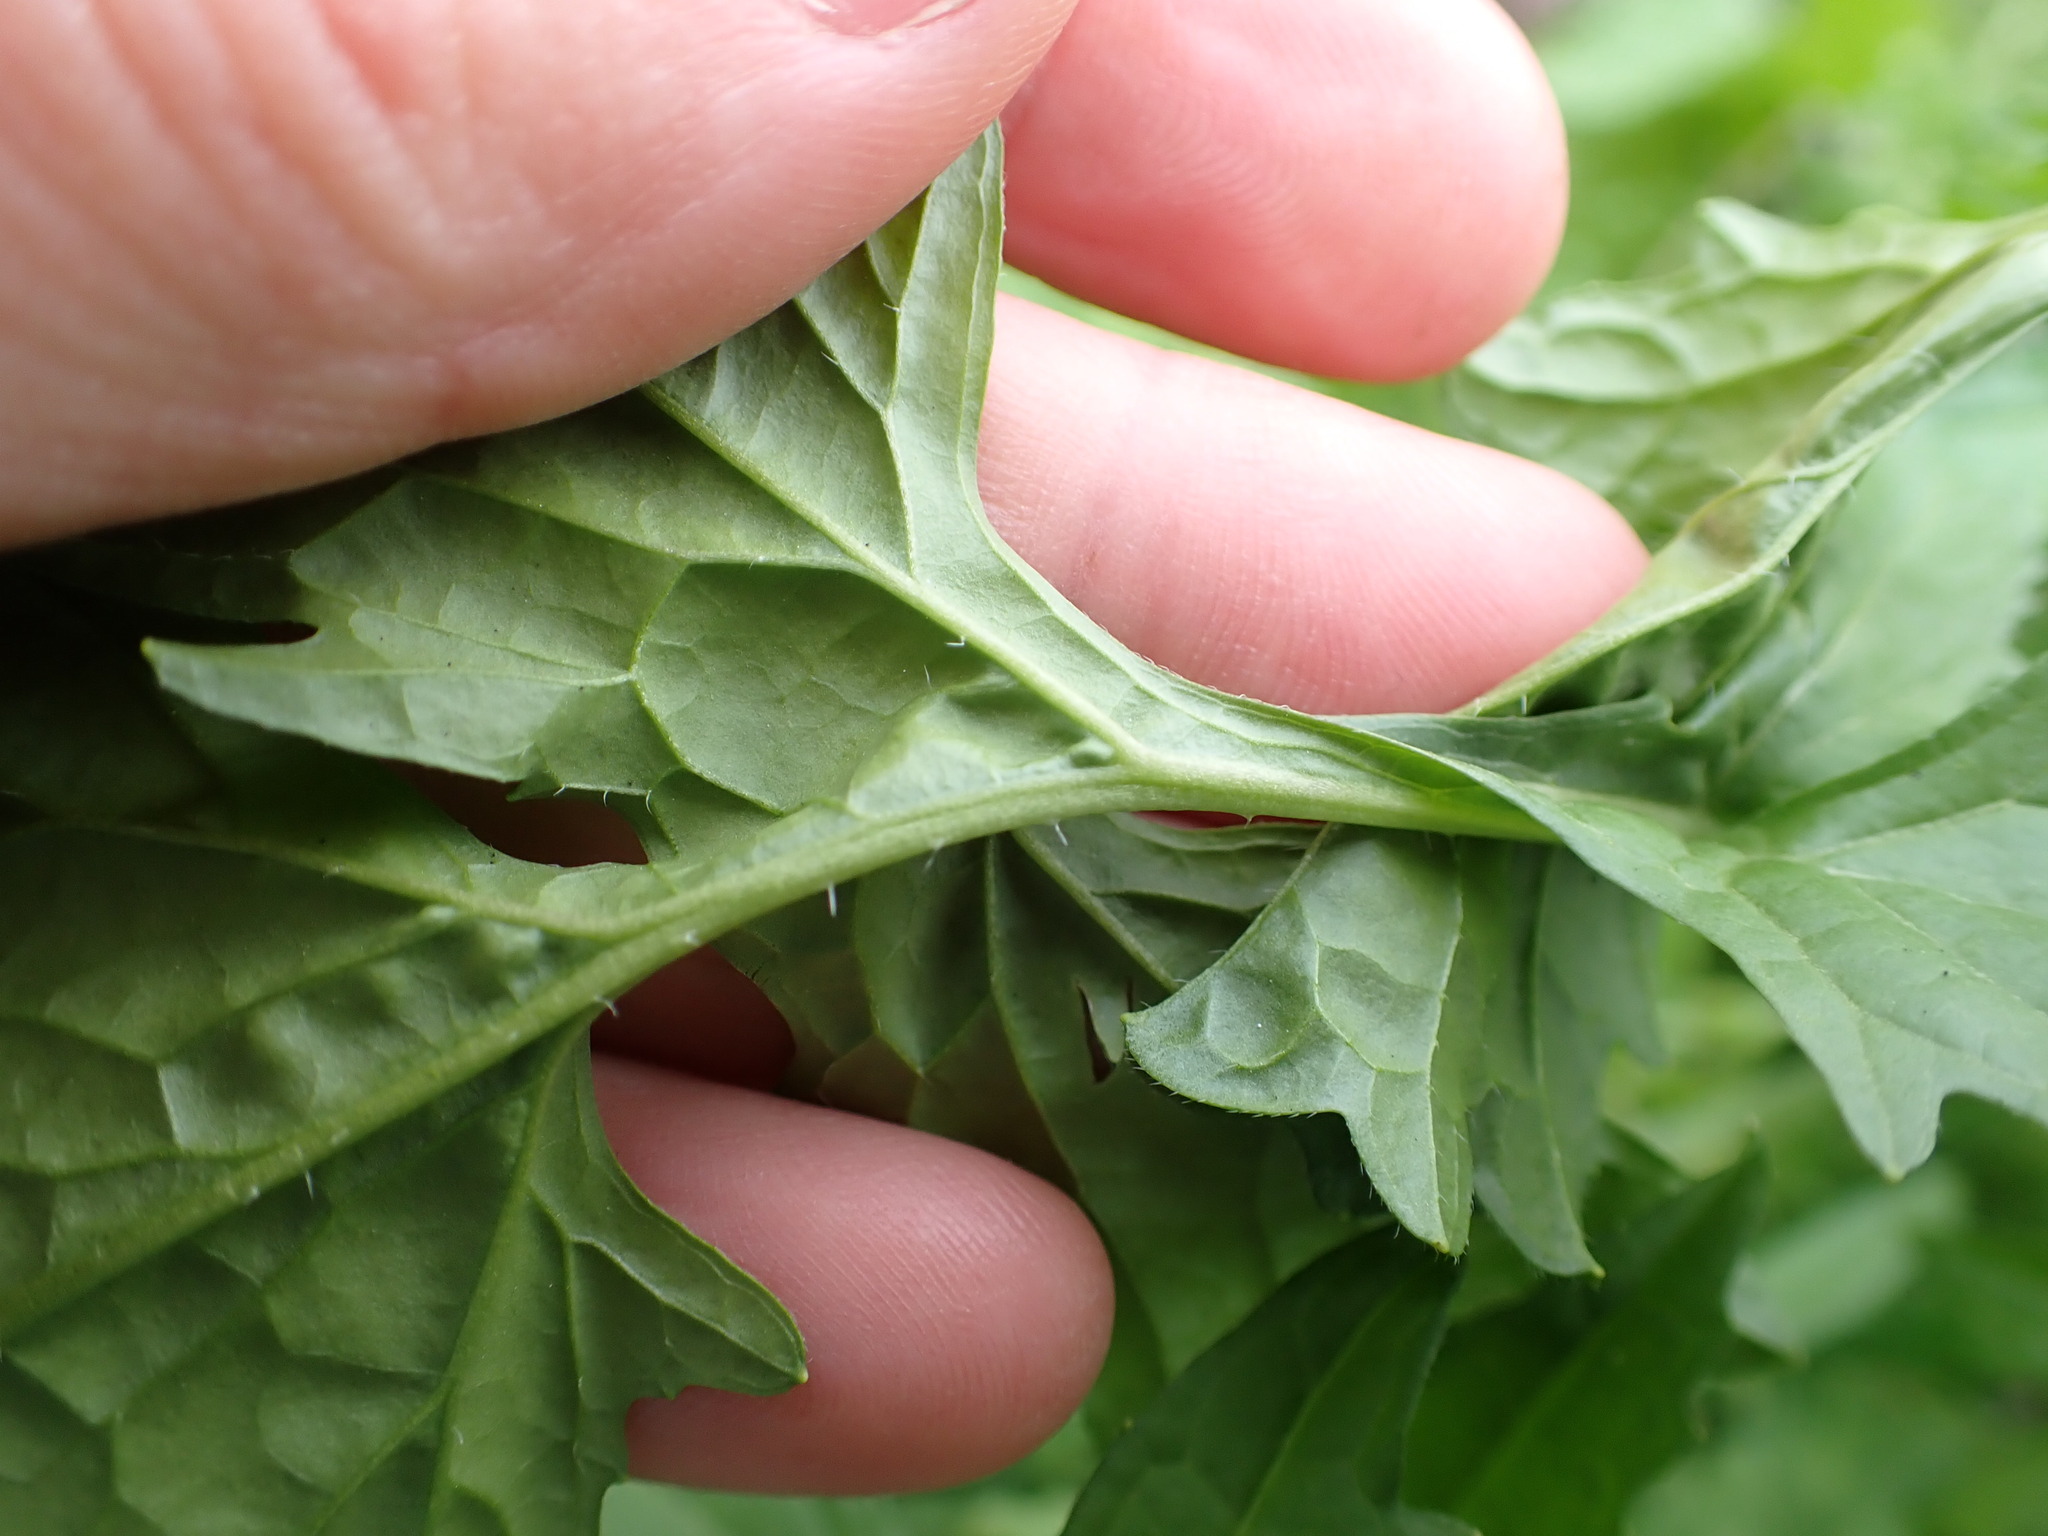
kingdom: Plantae
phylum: Tracheophyta
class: Magnoliopsida
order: Brassicales
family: Brassicaceae
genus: Sisymbrium
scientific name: Sisymbrium officinale
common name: Hedge mustard
